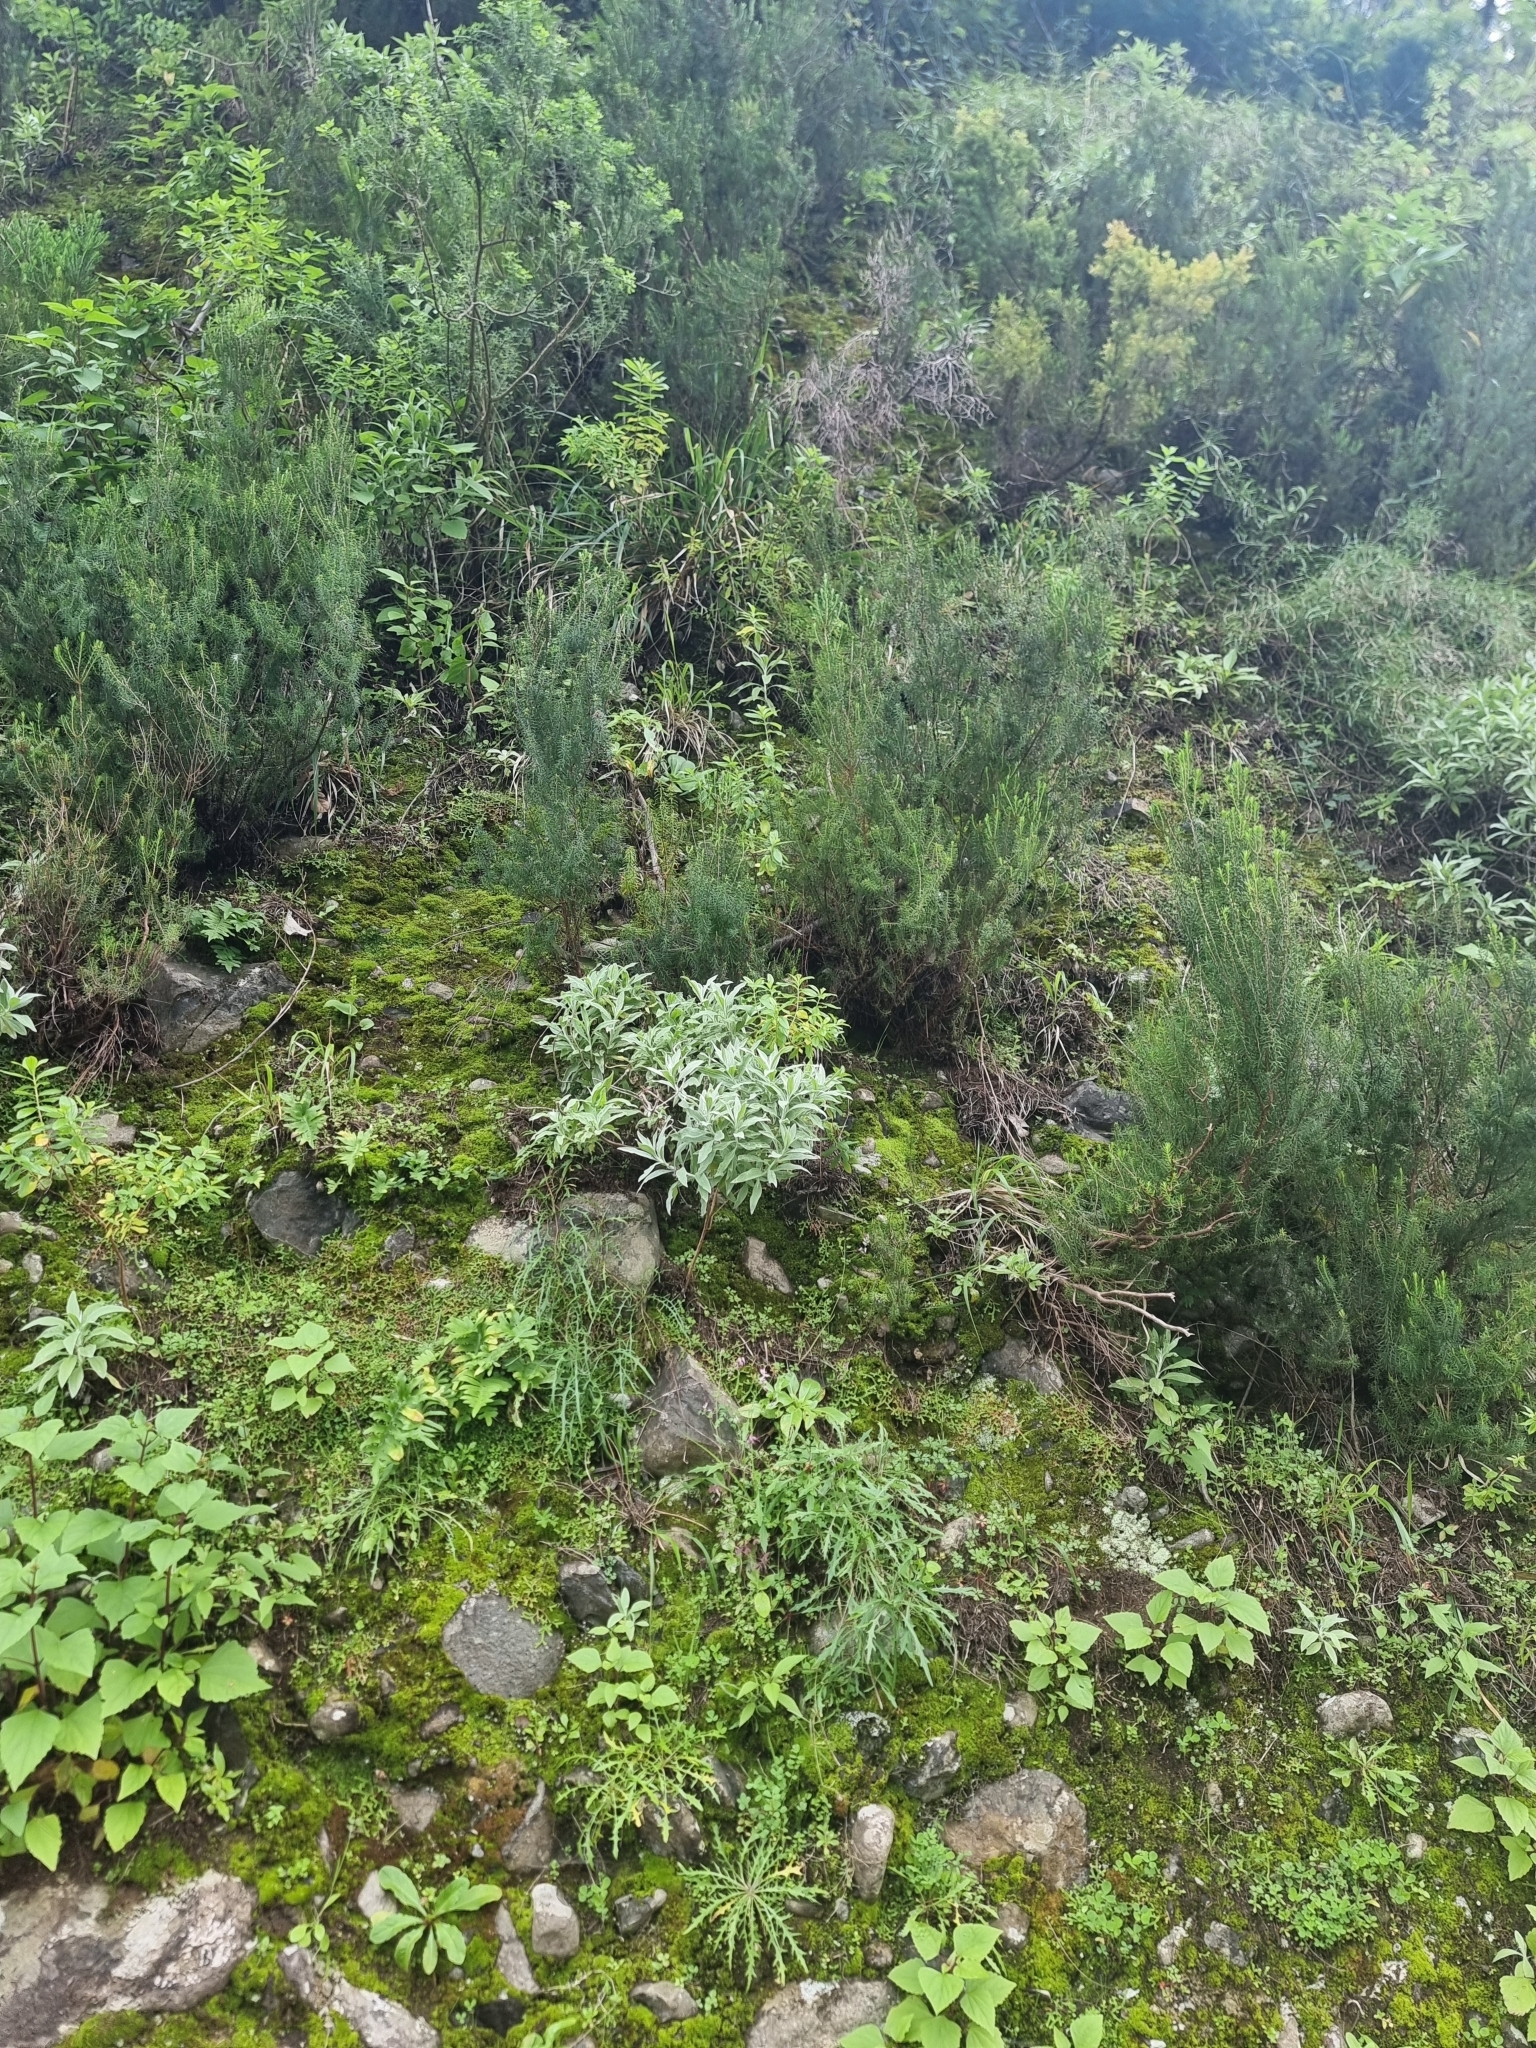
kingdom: Plantae
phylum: Tracheophyta
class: Magnoliopsida
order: Asterales
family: Asteraceae
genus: Helichrysum
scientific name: Helichrysum melaleucum
